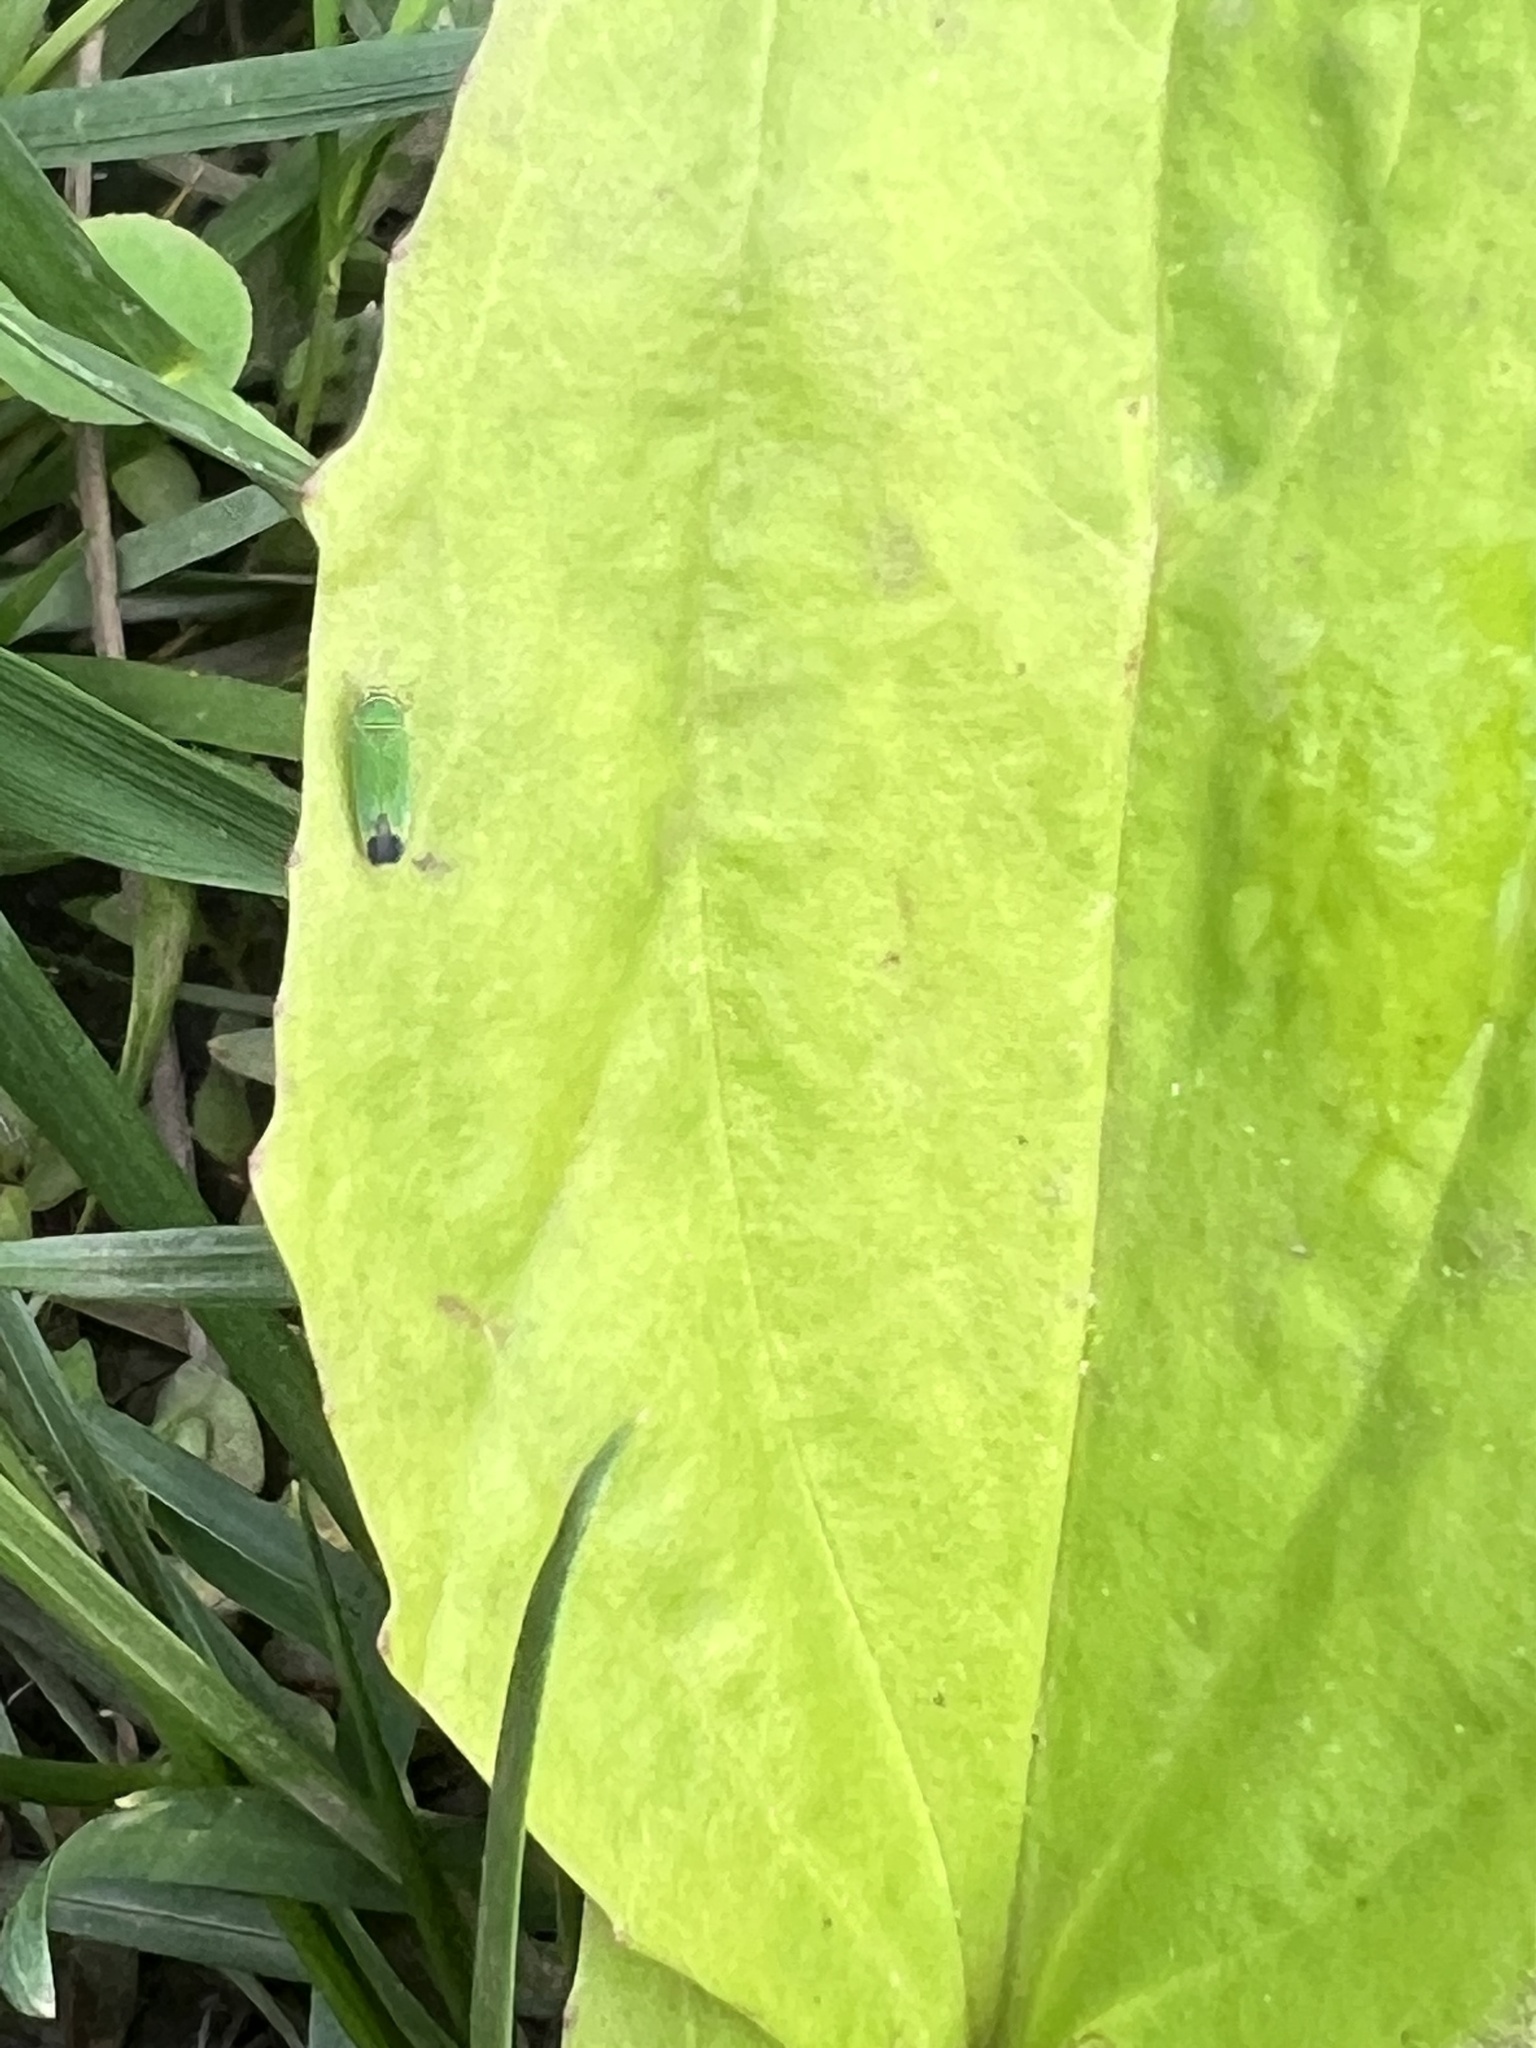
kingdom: Animalia
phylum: Arthropoda
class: Insecta
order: Hemiptera
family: Cicadellidae
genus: Tylozygus
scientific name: Tylozygus geometricus
